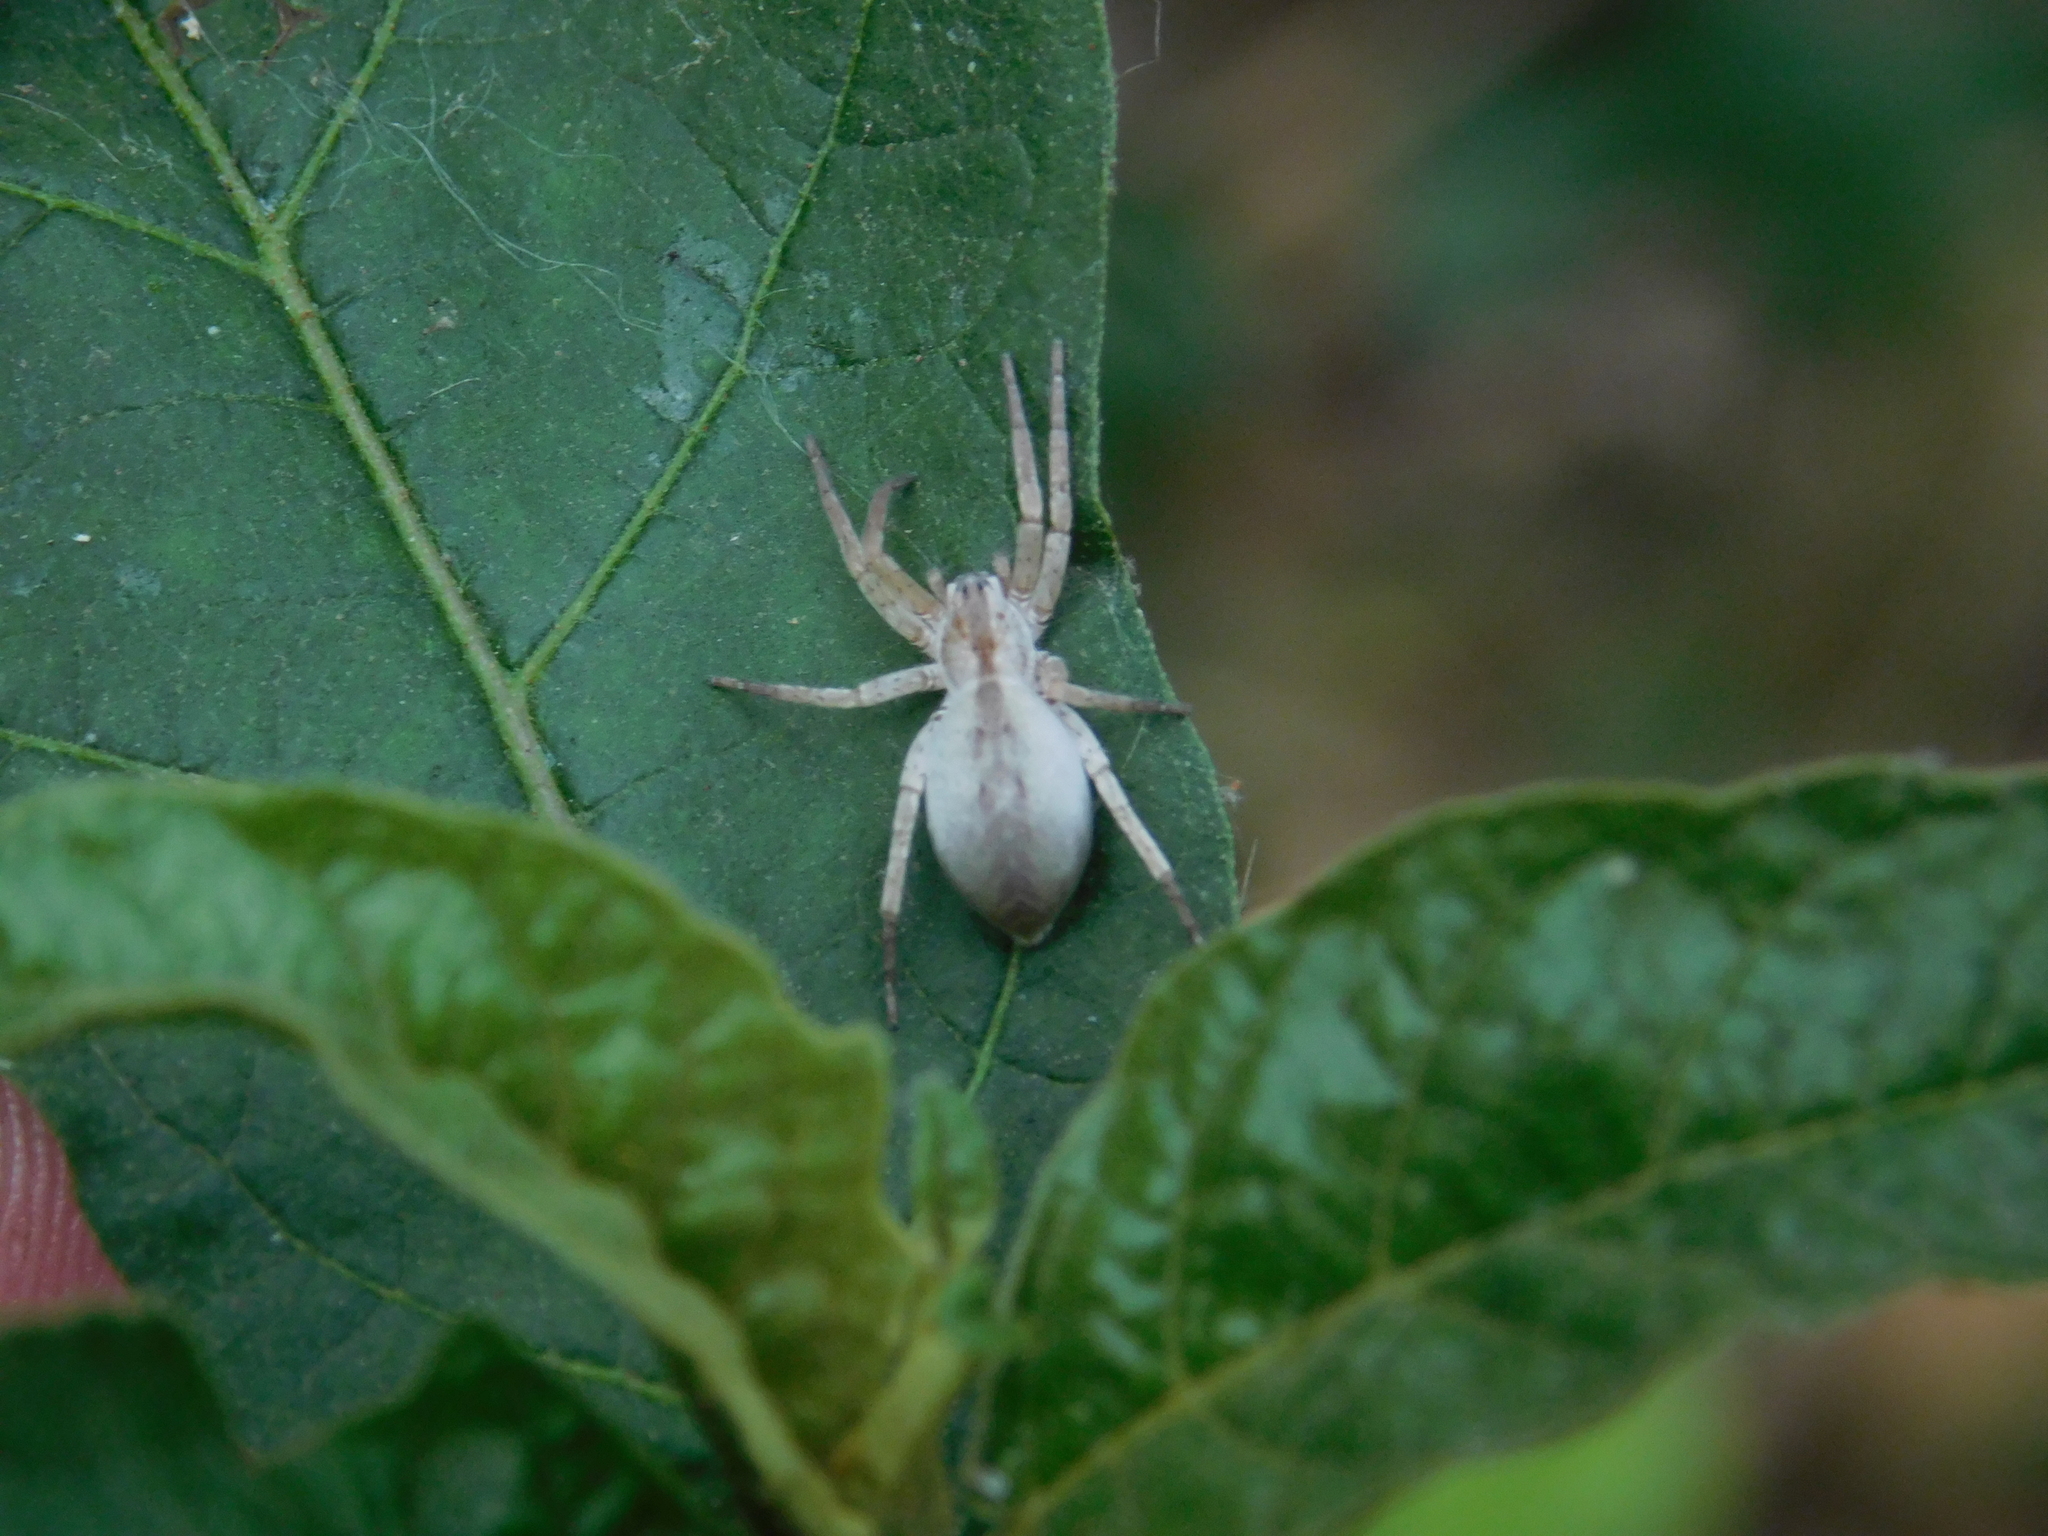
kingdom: Animalia
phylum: Arthropoda
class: Arachnida
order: Araneae
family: Anyphaenidae
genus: Arachosia
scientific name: Arachosia praesignis
